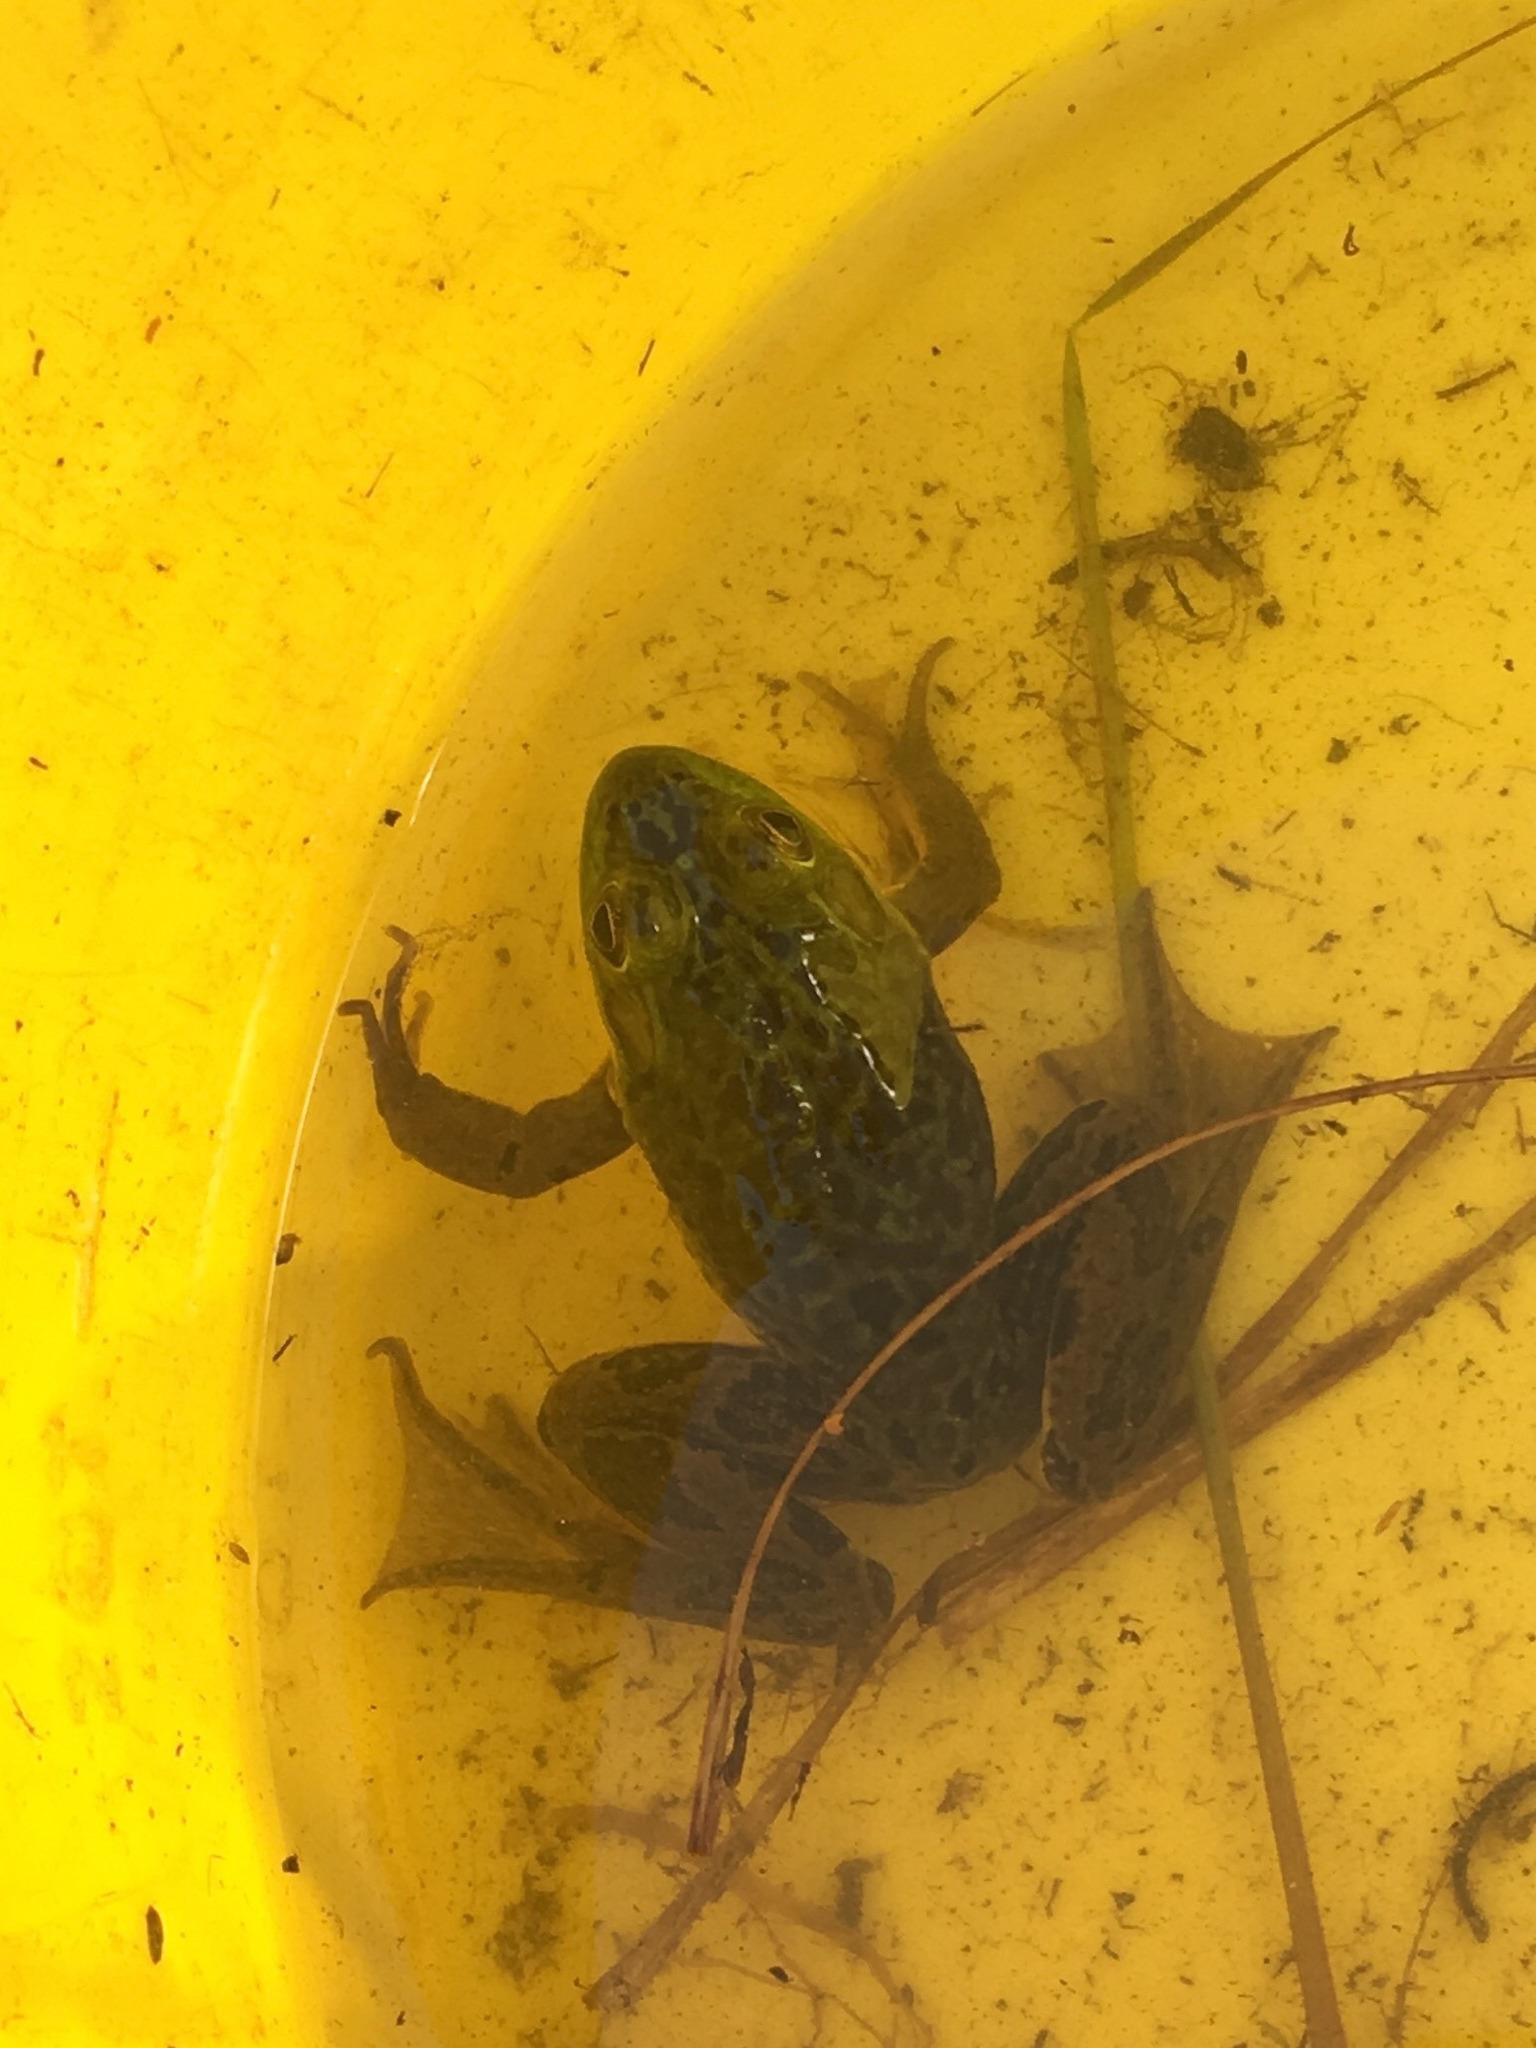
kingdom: Animalia
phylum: Chordata
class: Amphibia
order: Anura
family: Ranidae
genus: Lithobates
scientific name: Lithobates septentrionalis
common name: Mink frog
